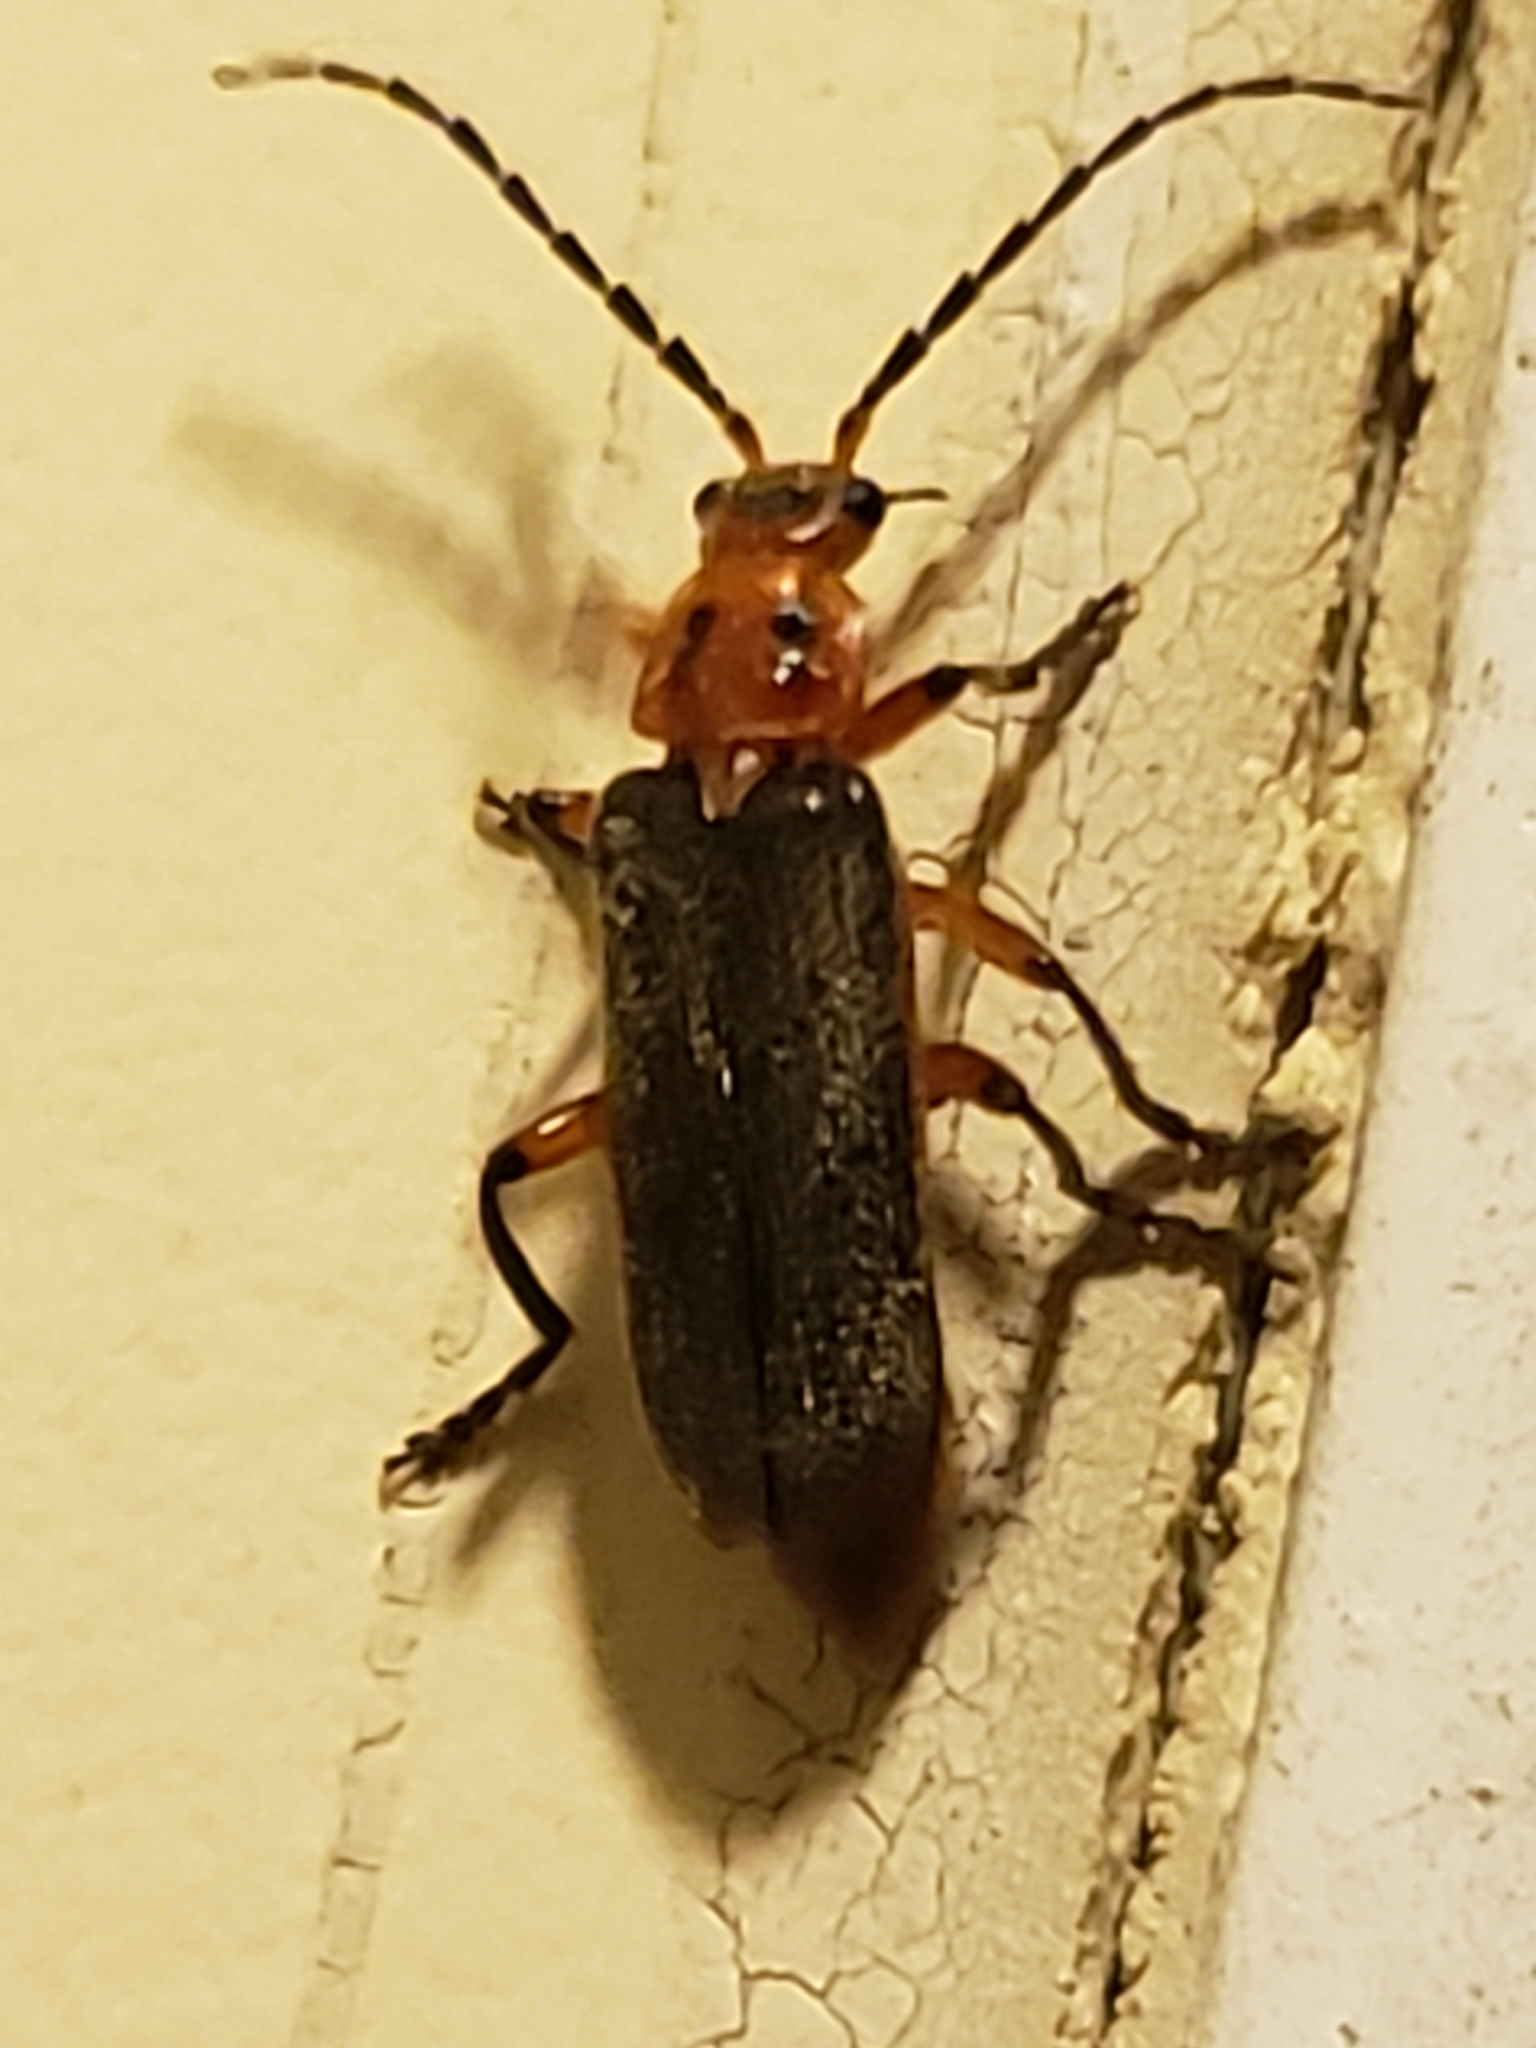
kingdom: Animalia
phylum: Arthropoda
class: Insecta
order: Coleoptera
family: Cantharidae
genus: Atalantycha
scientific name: Atalantycha bilineata
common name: Two-lined leatherwing
